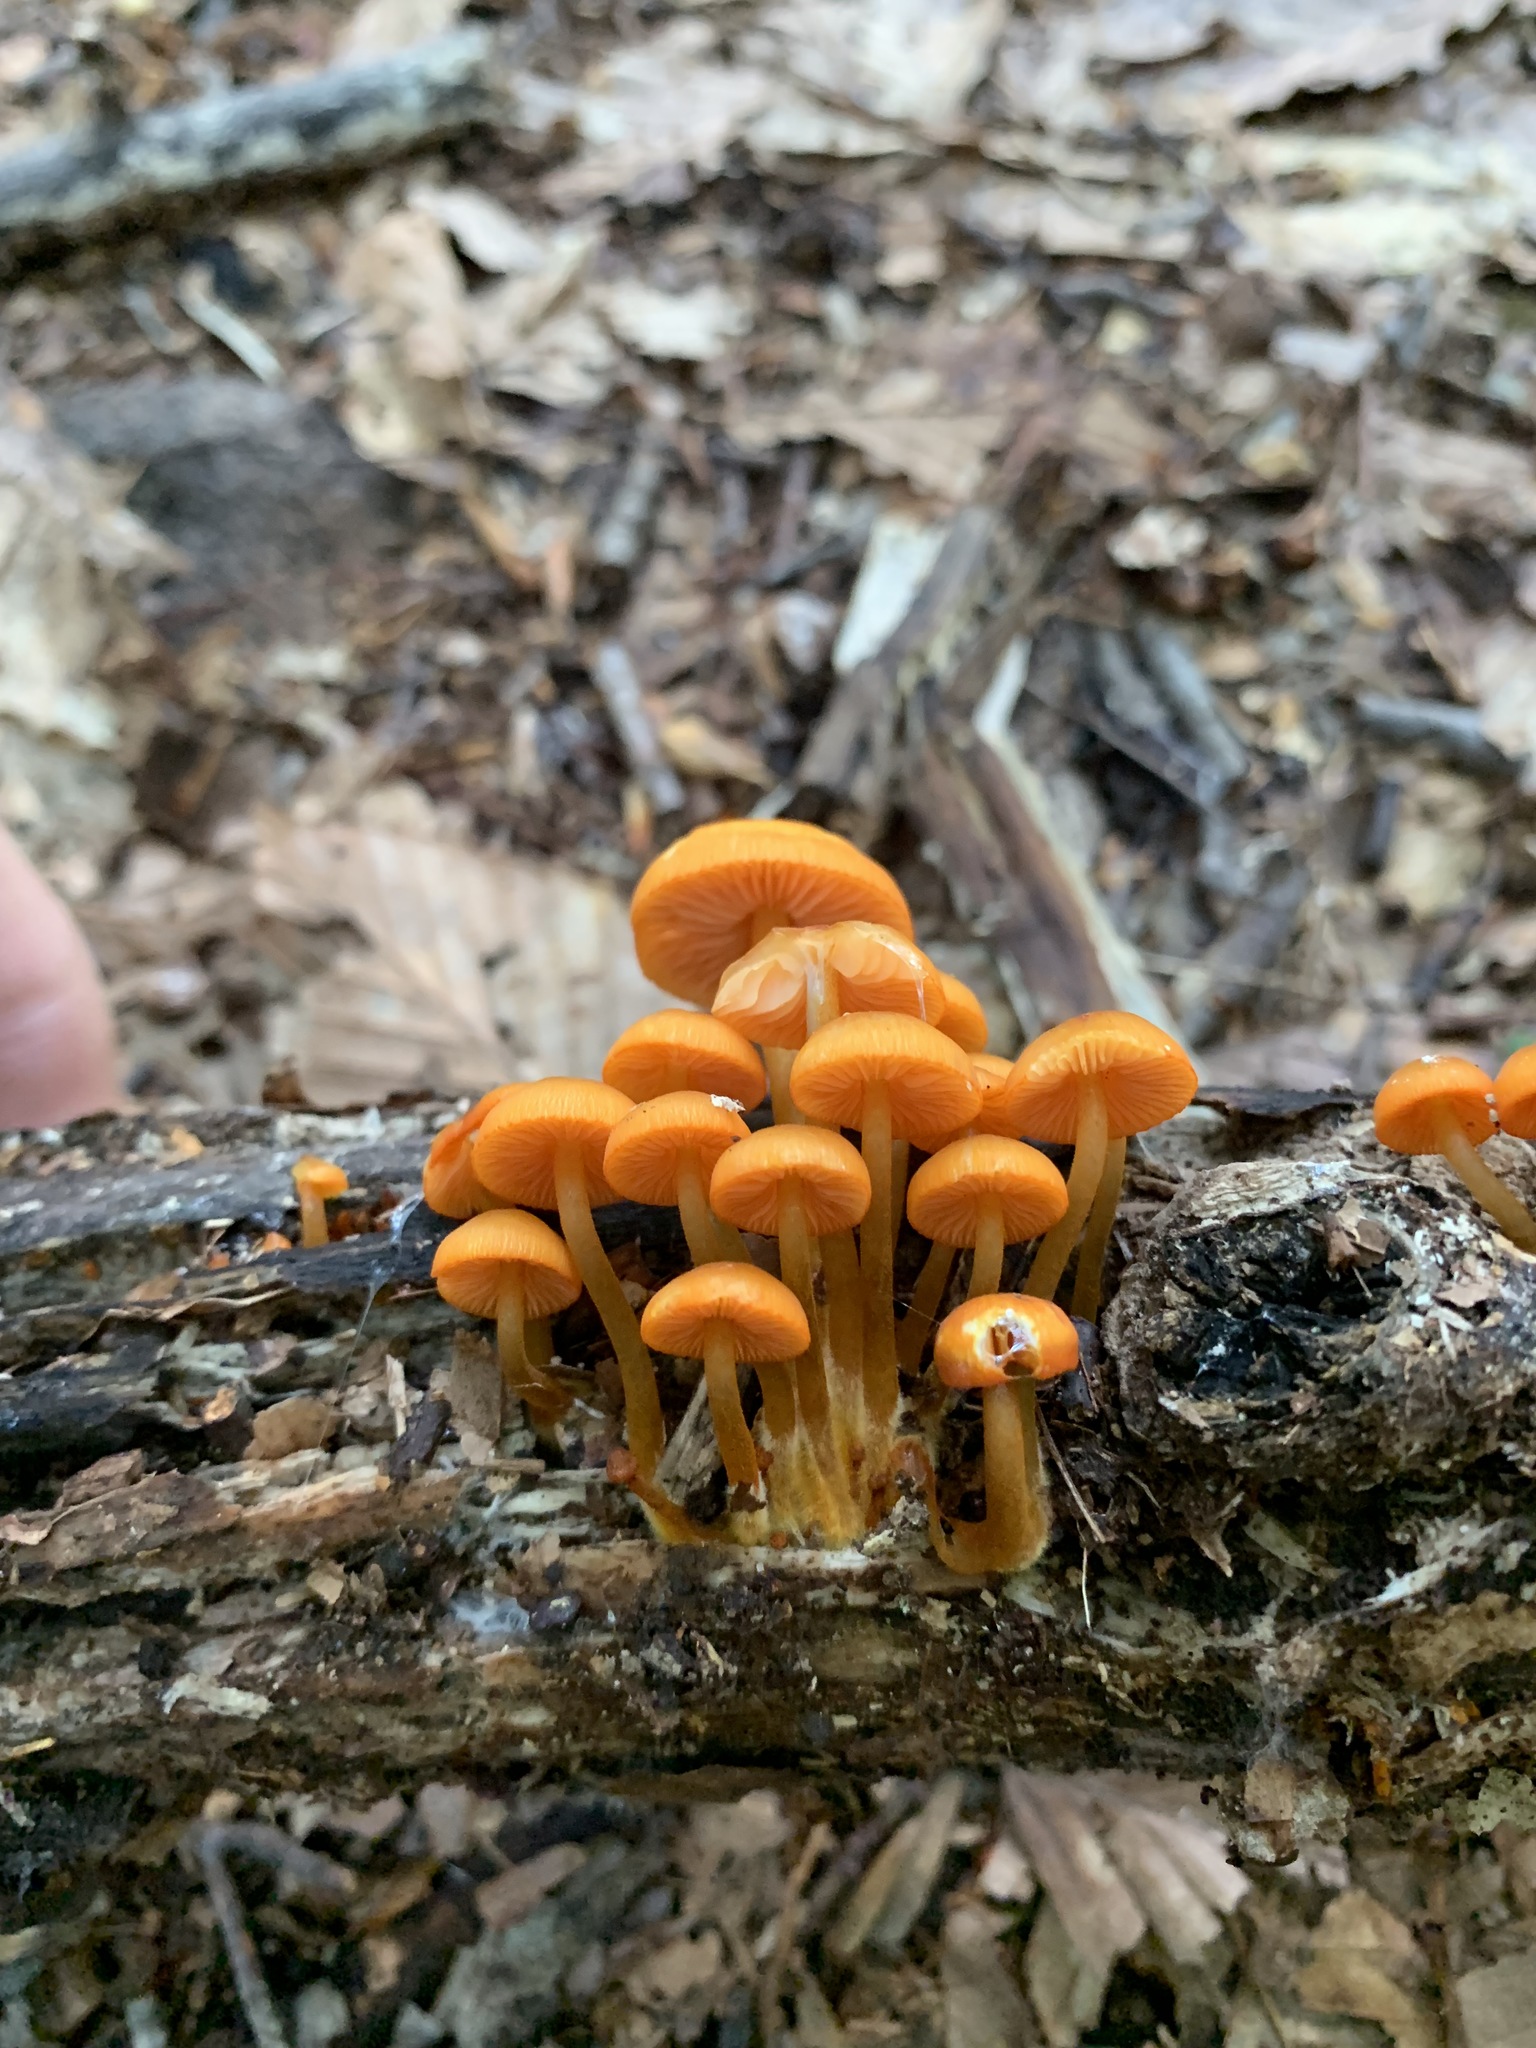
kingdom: Fungi
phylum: Basidiomycota
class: Agaricomycetes
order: Agaricales
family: Mycenaceae
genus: Mycena
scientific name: Mycena leaiana
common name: Orange mycena
